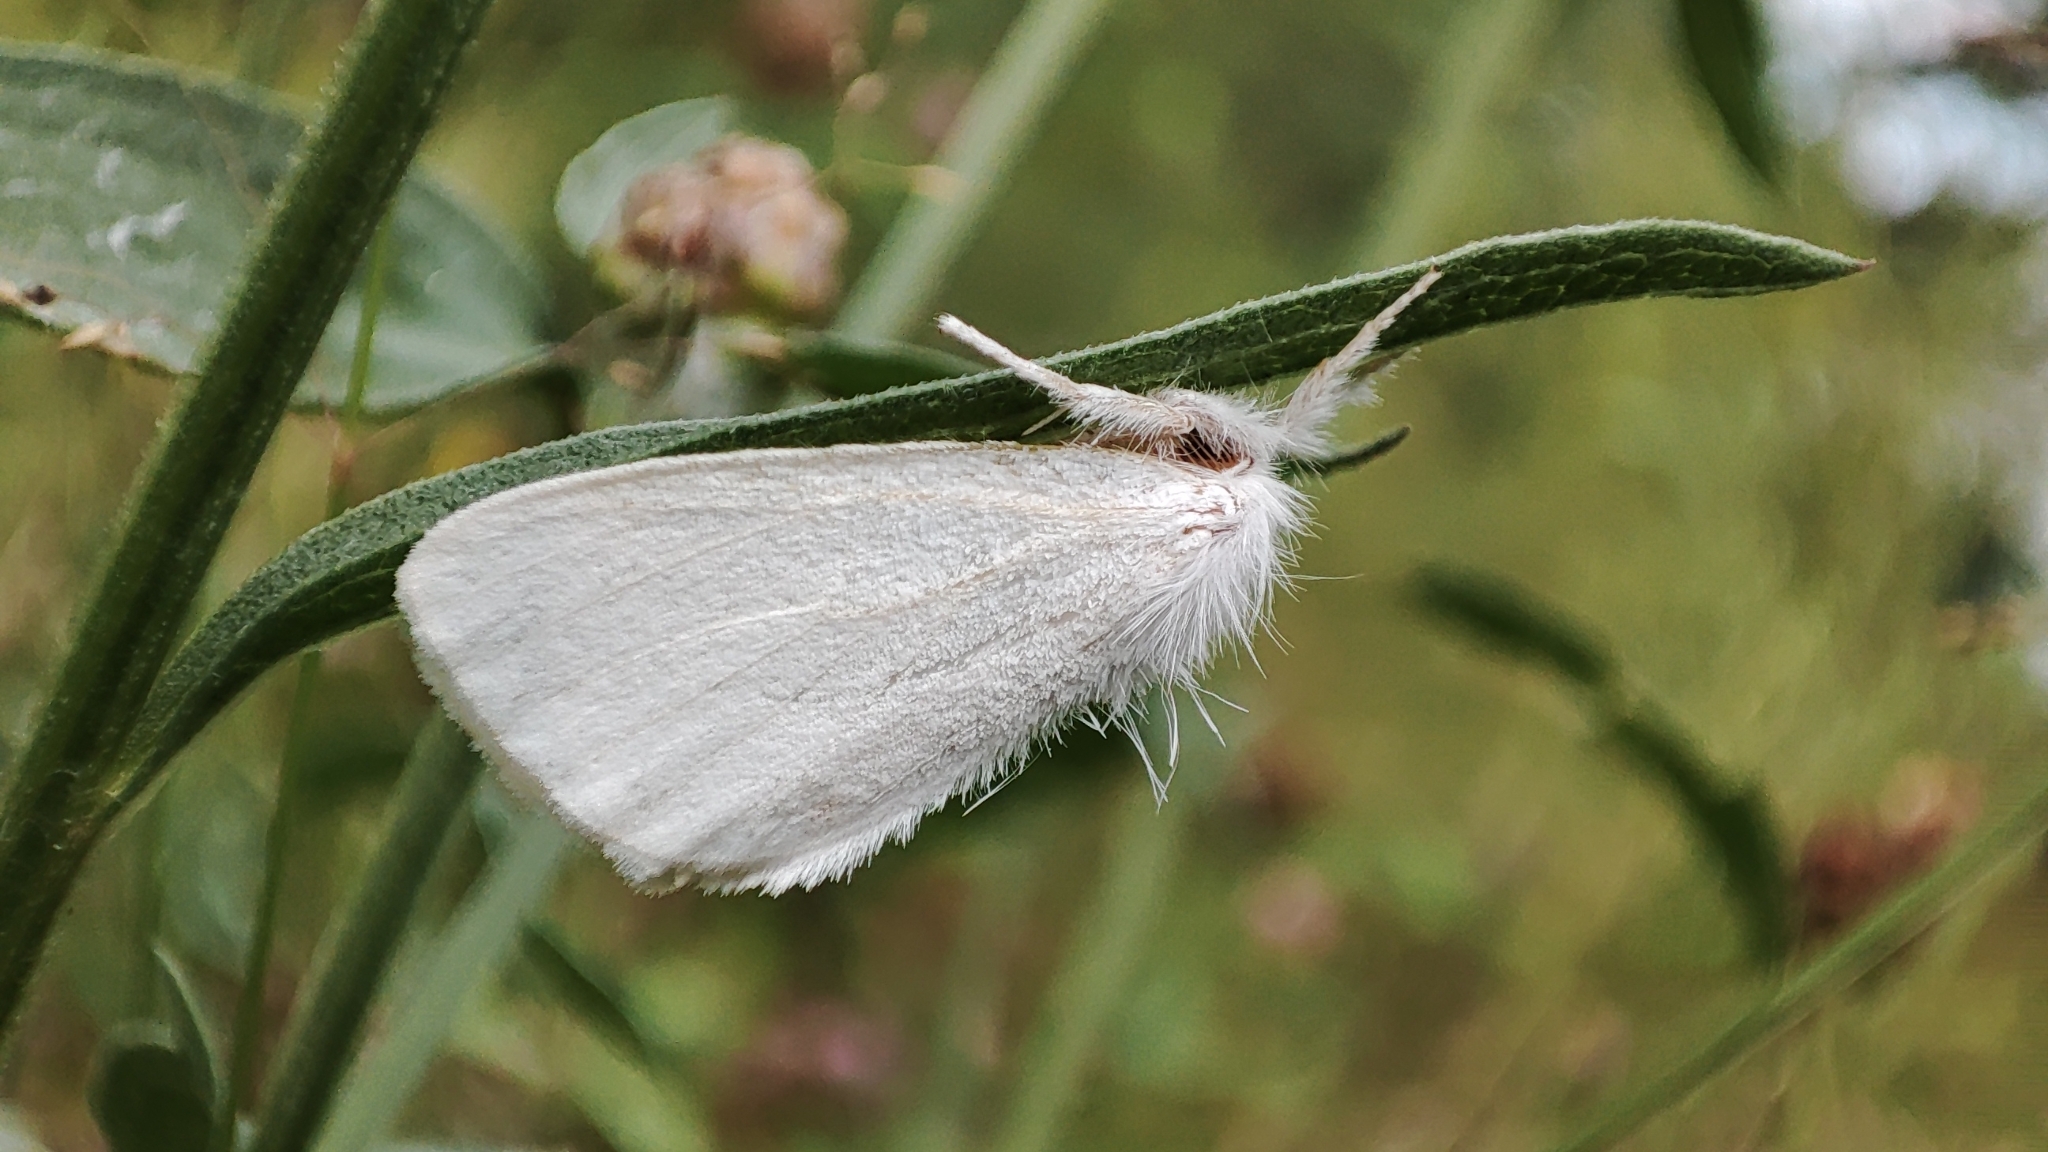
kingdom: Animalia
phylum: Arthropoda
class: Insecta
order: Lepidoptera
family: Erebidae
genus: Sphrageidus
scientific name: Sphrageidus similis
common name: Yellow-tail
